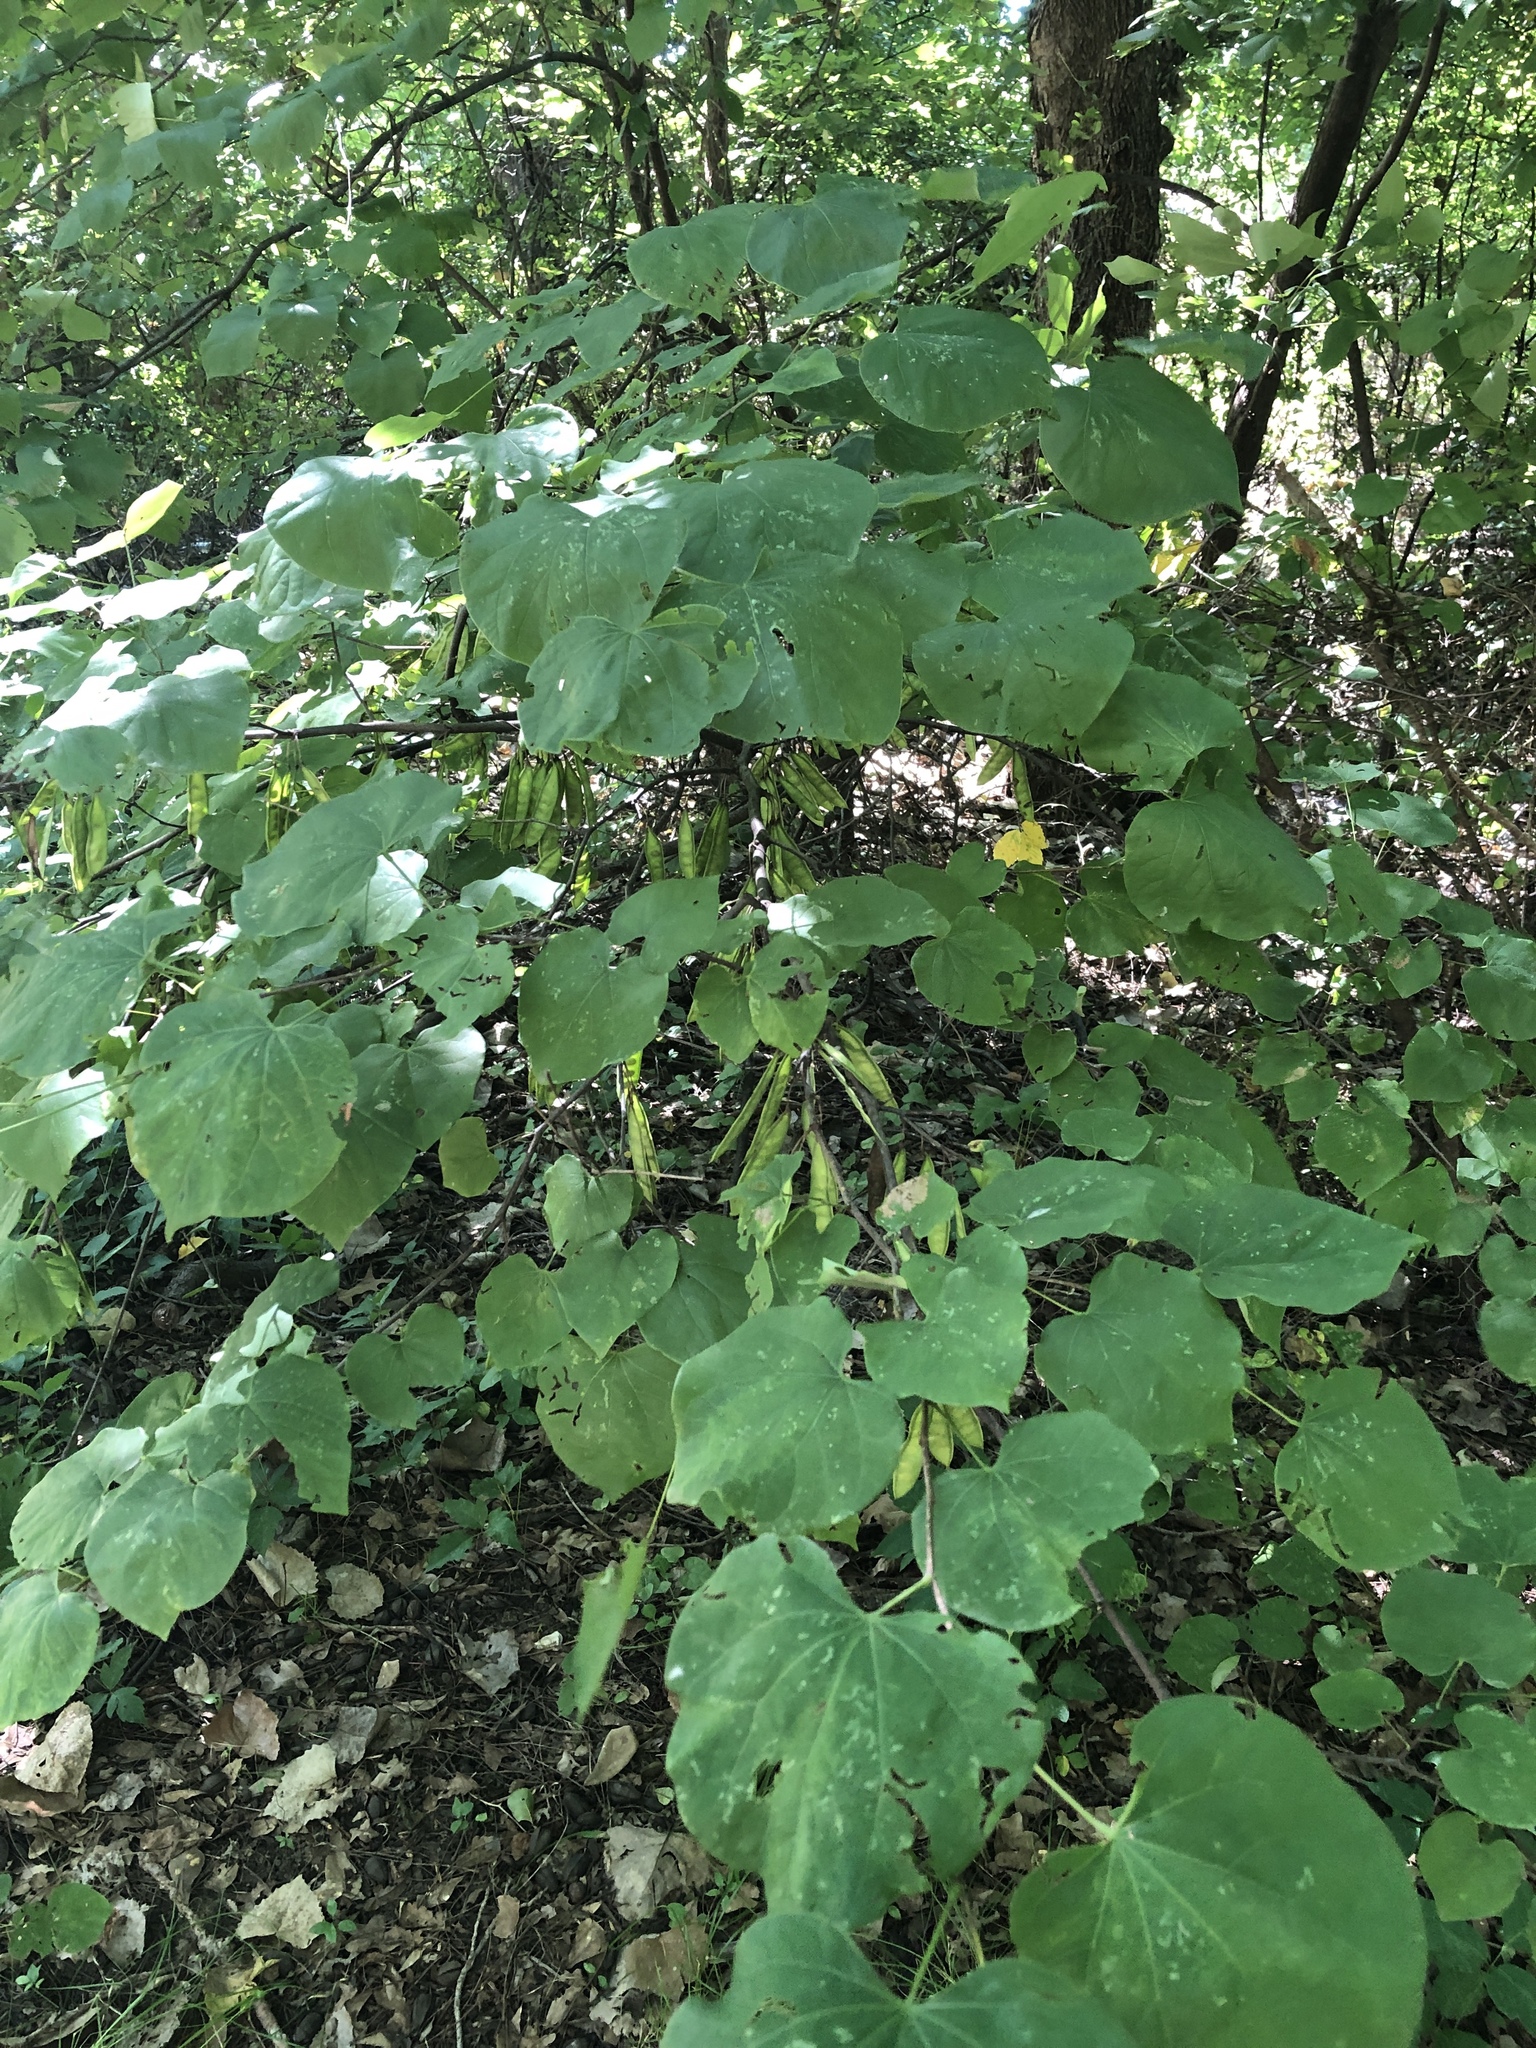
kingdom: Plantae
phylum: Tracheophyta
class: Magnoliopsida
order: Fabales
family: Fabaceae
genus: Cercis
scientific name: Cercis canadensis
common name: Eastern redbud
